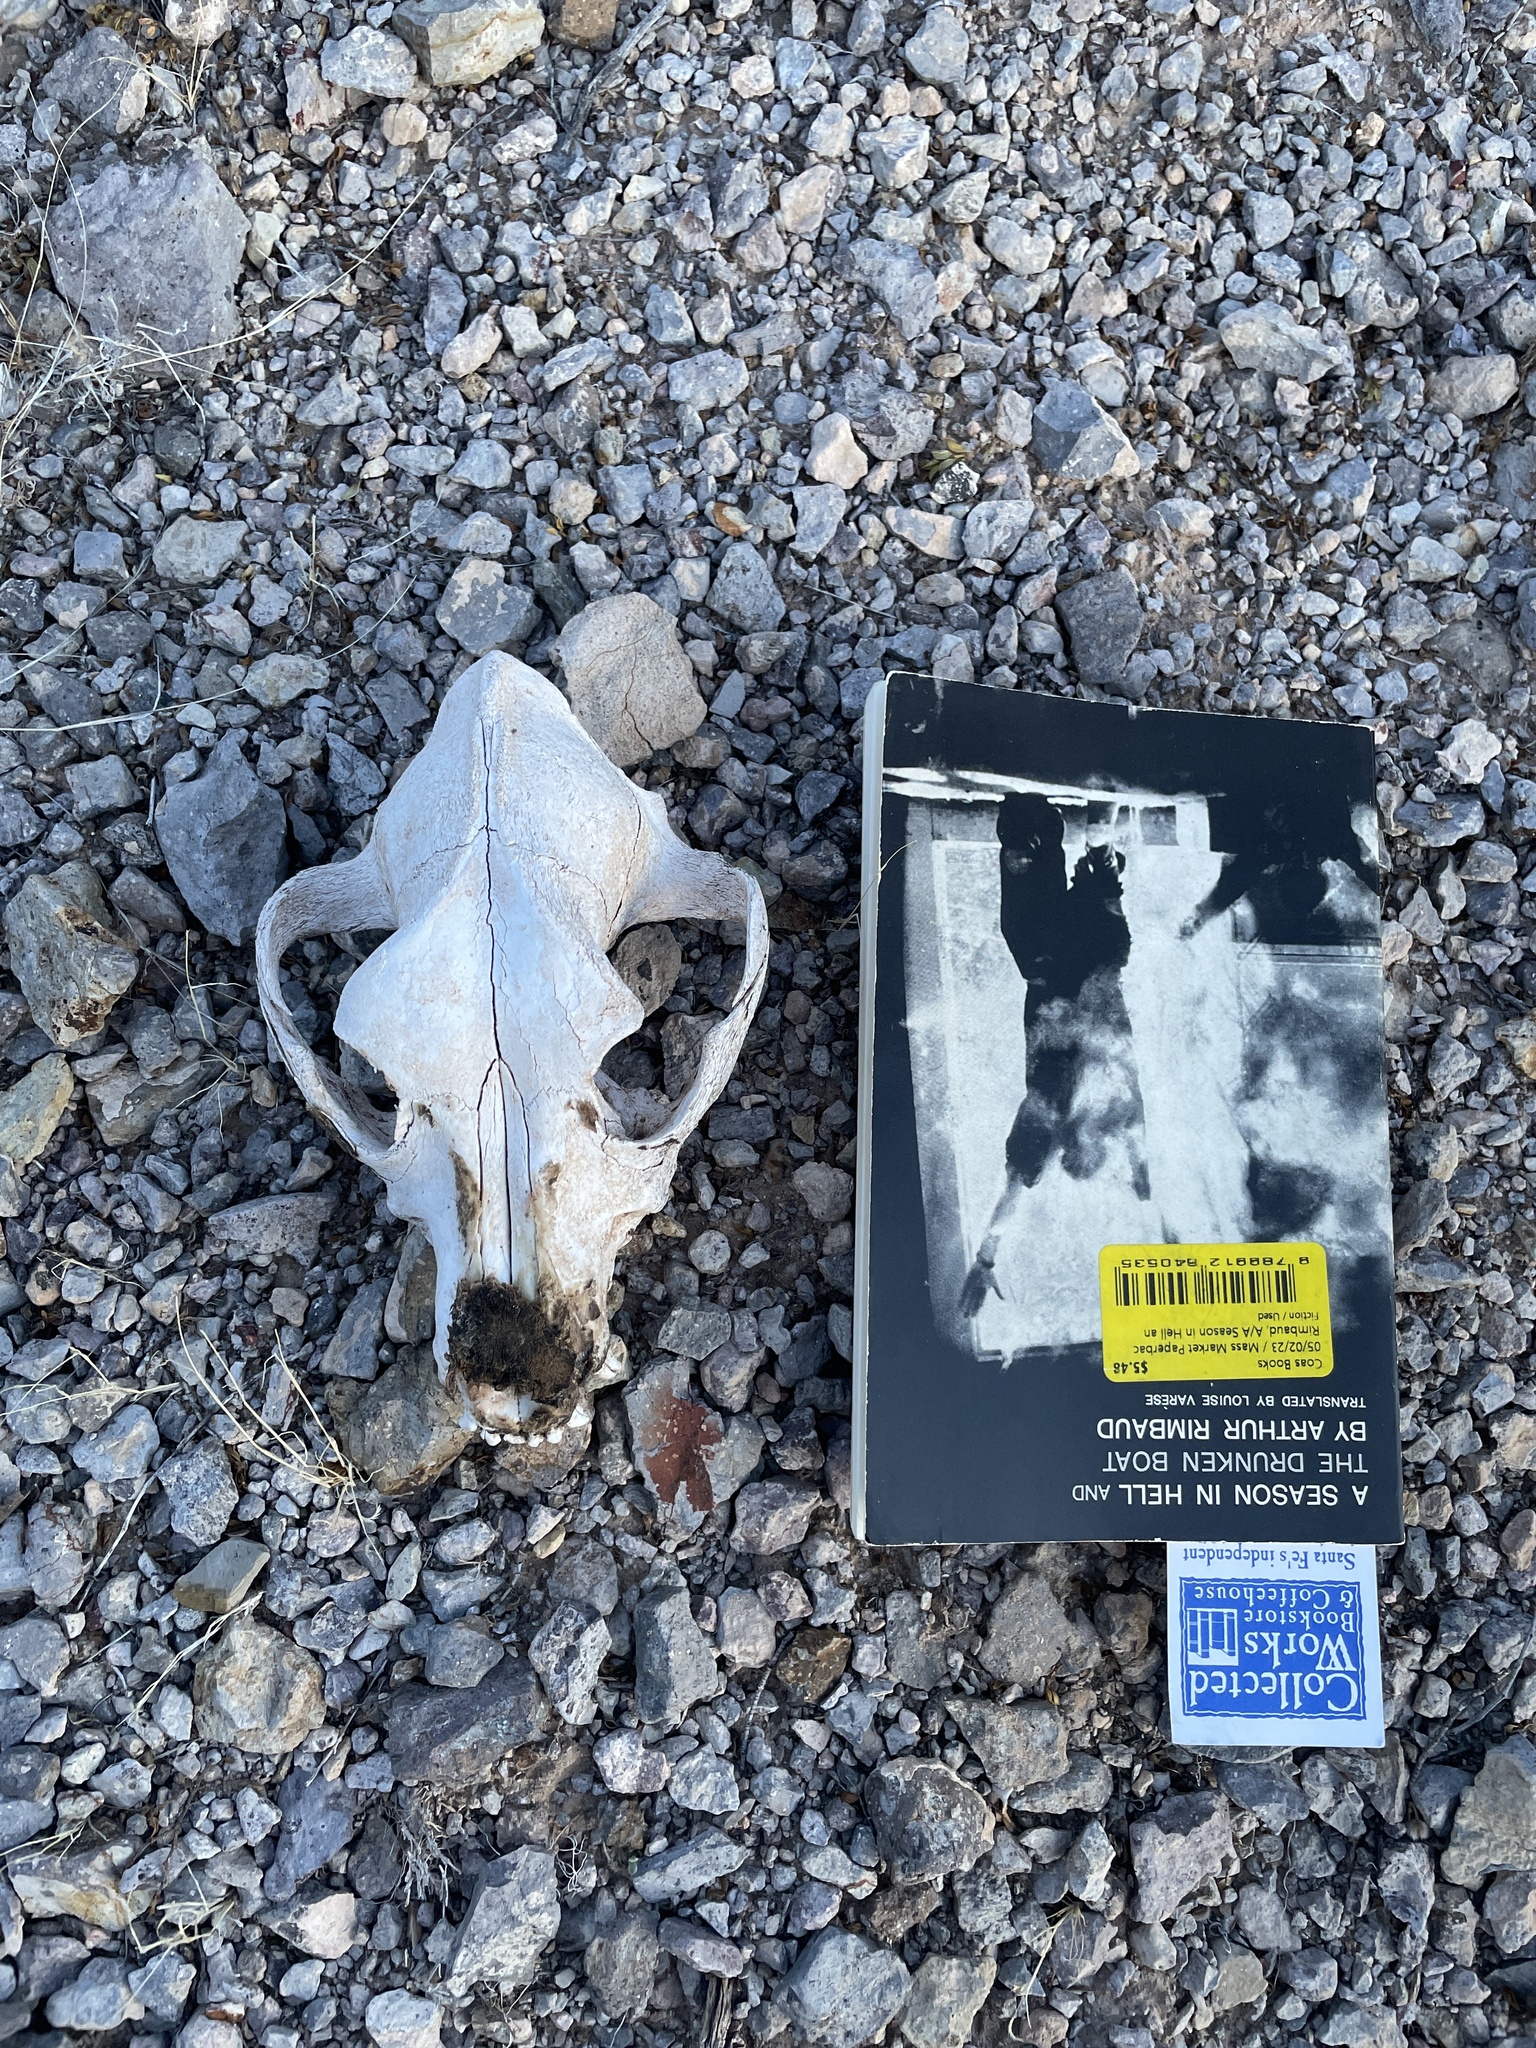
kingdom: Animalia
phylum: Chordata
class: Mammalia
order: Carnivora
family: Canidae
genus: Canis
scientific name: Canis lupus
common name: Gray wolf
